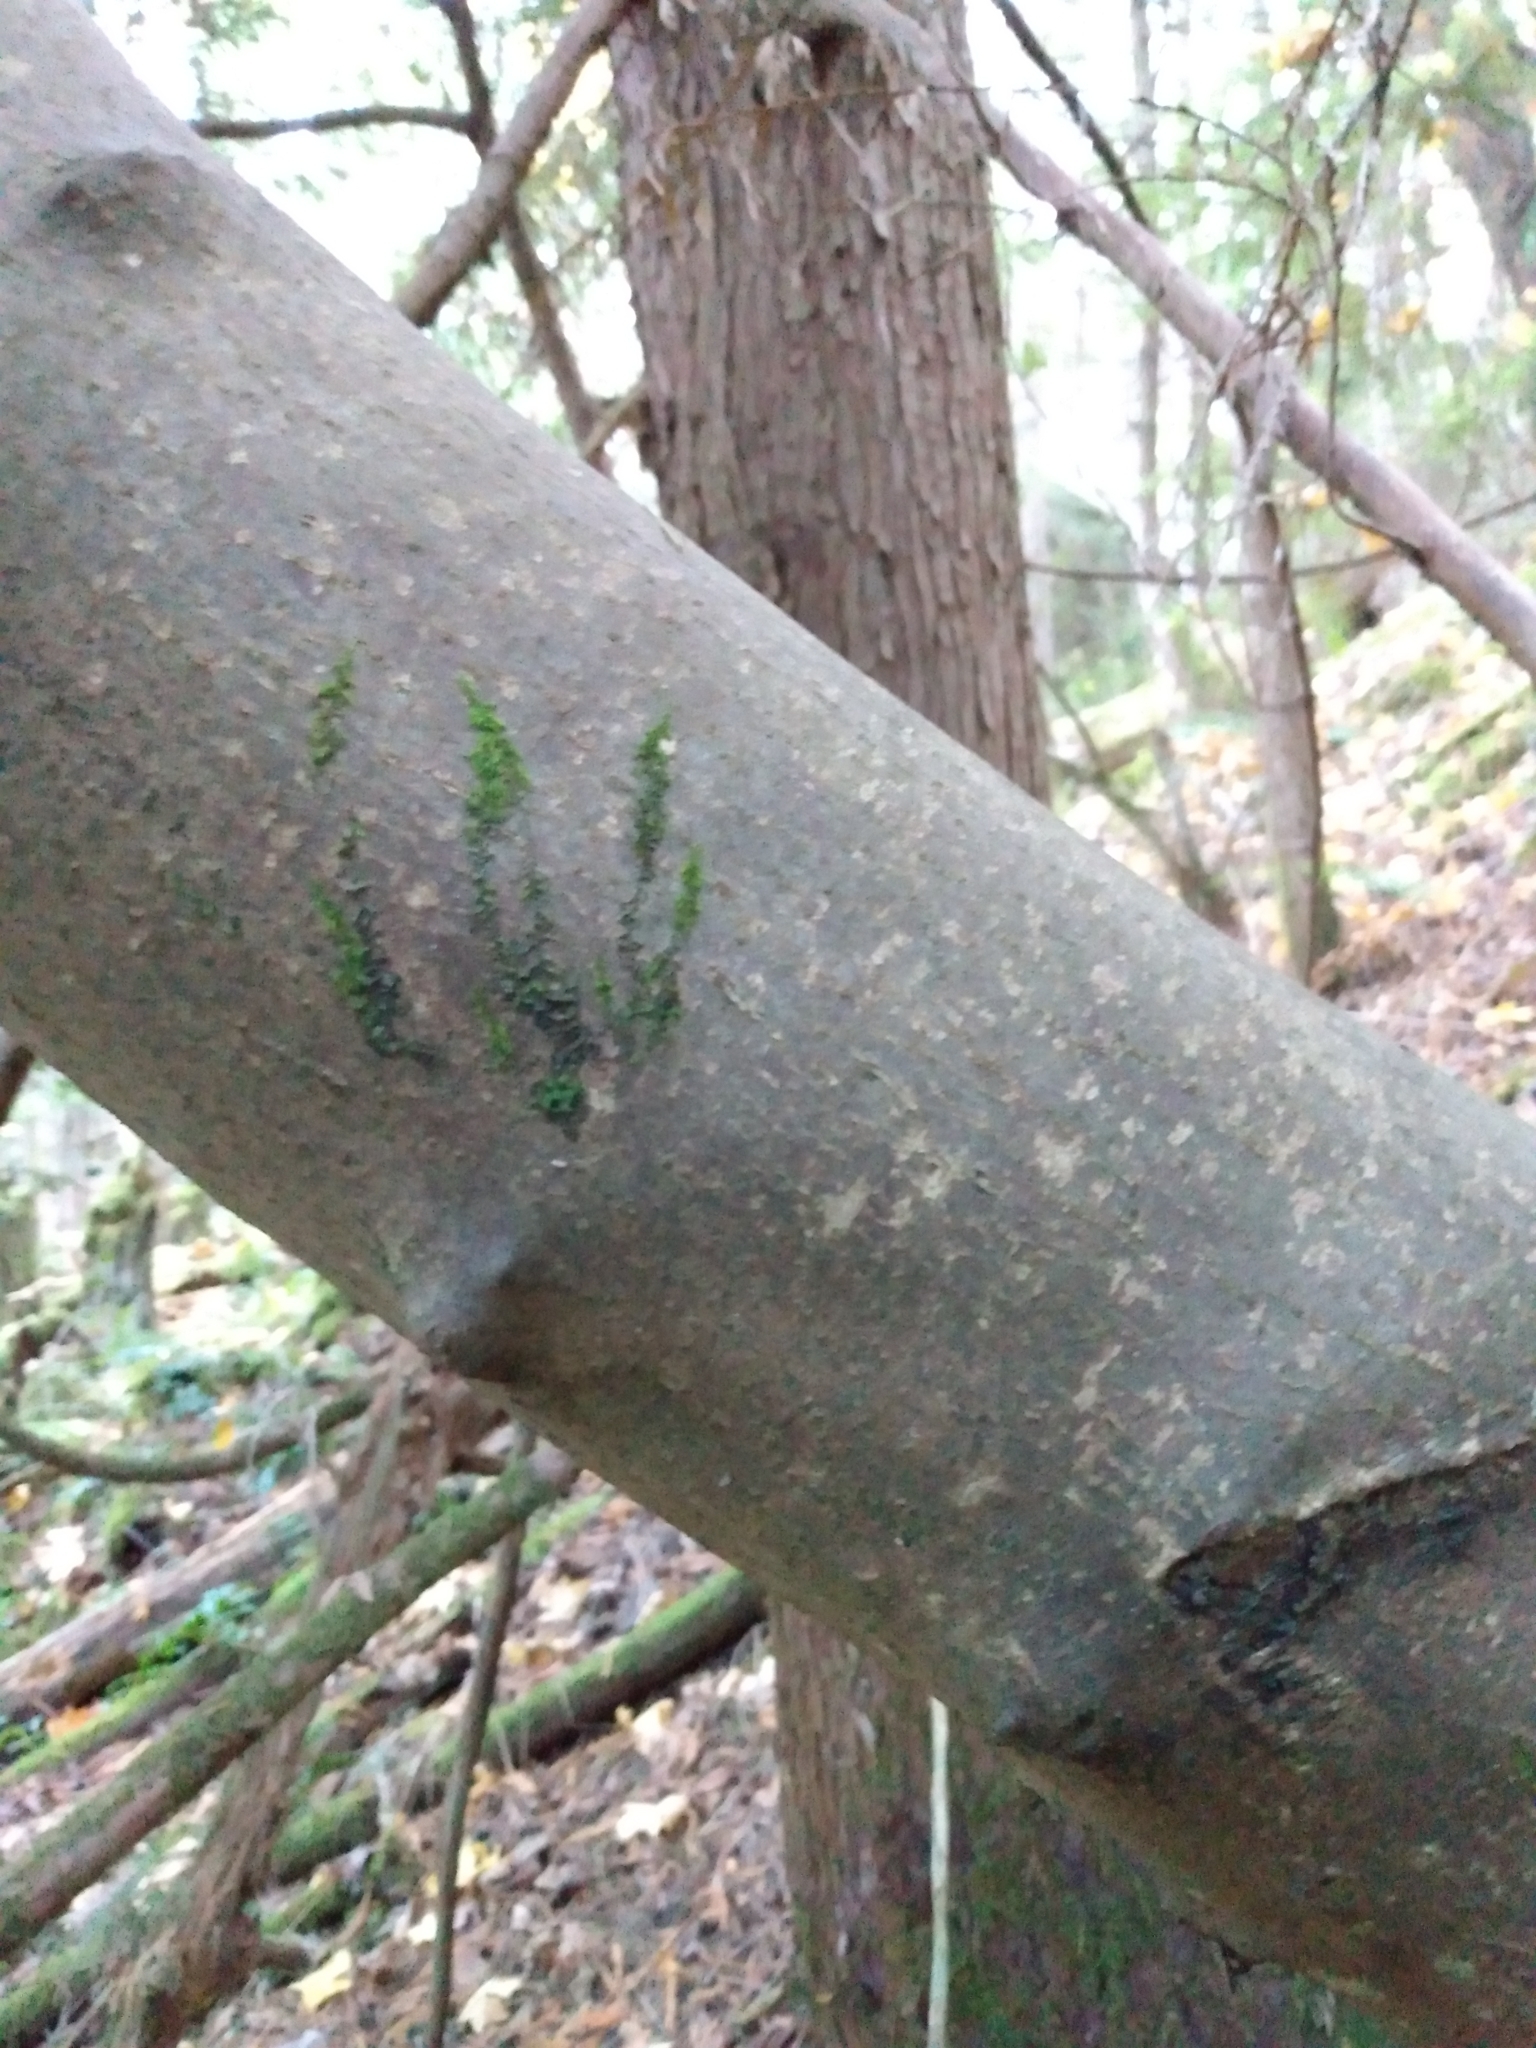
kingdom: Plantae
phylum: Tracheophyta
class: Magnoliopsida
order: Cornales
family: Cornaceae
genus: Cornus
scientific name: Cornus nuttallii
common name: Pacific dogwood
